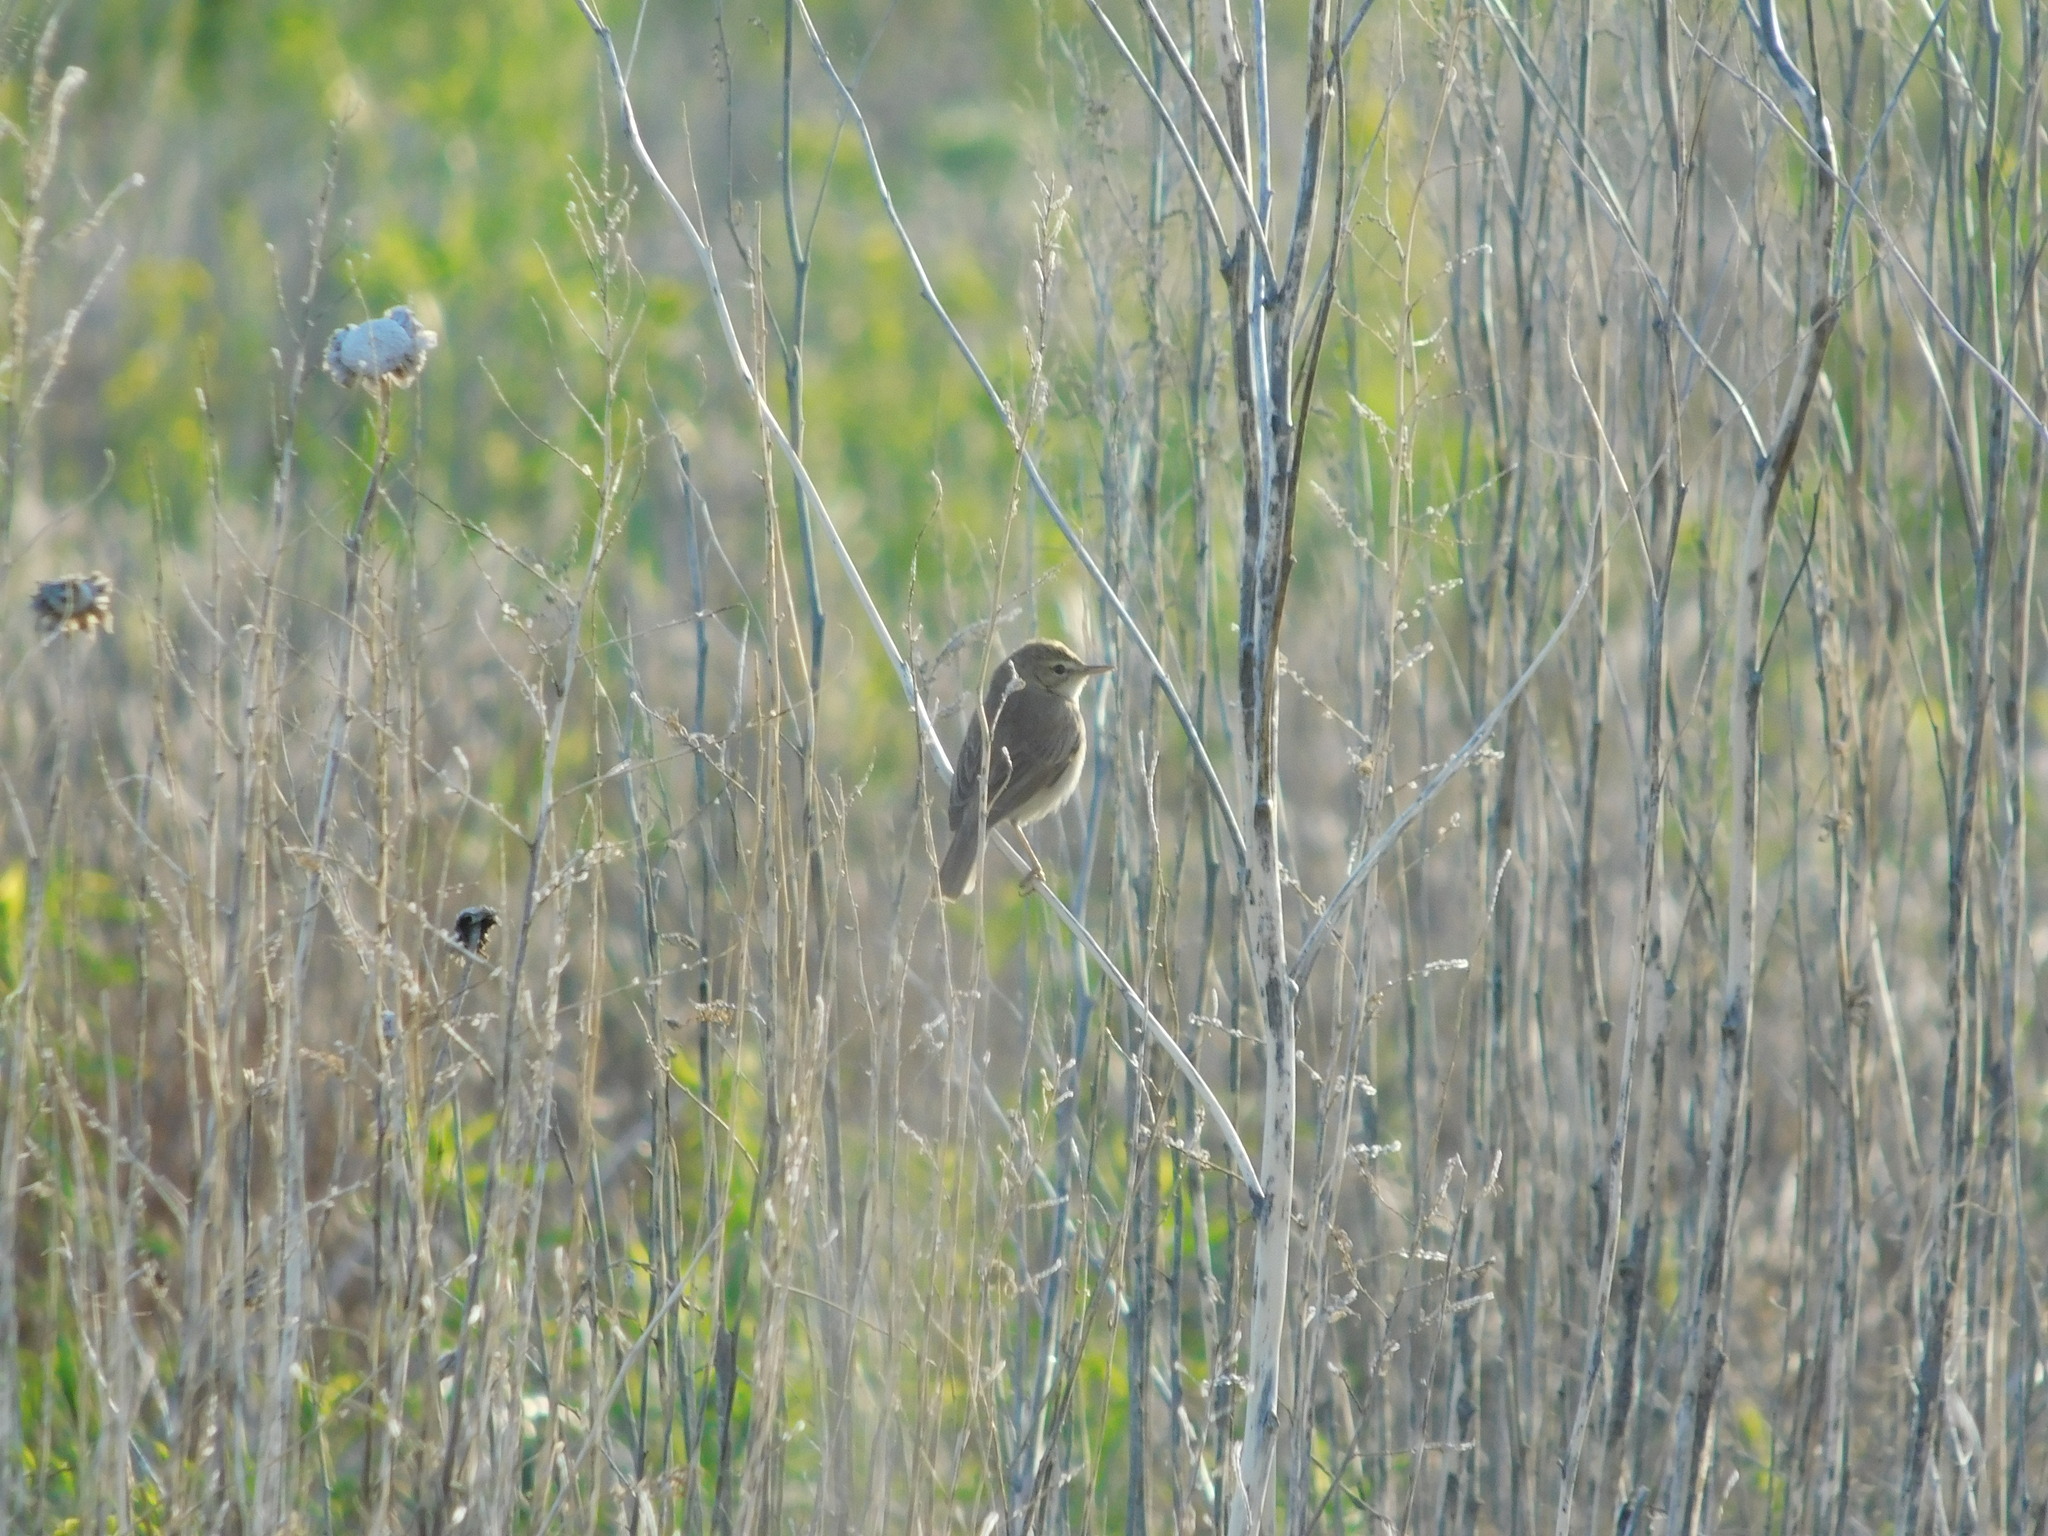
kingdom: Animalia
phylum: Chordata
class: Aves
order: Passeriformes
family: Acrocephalidae
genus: Iduna
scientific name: Iduna caligata
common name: Booted warbler
